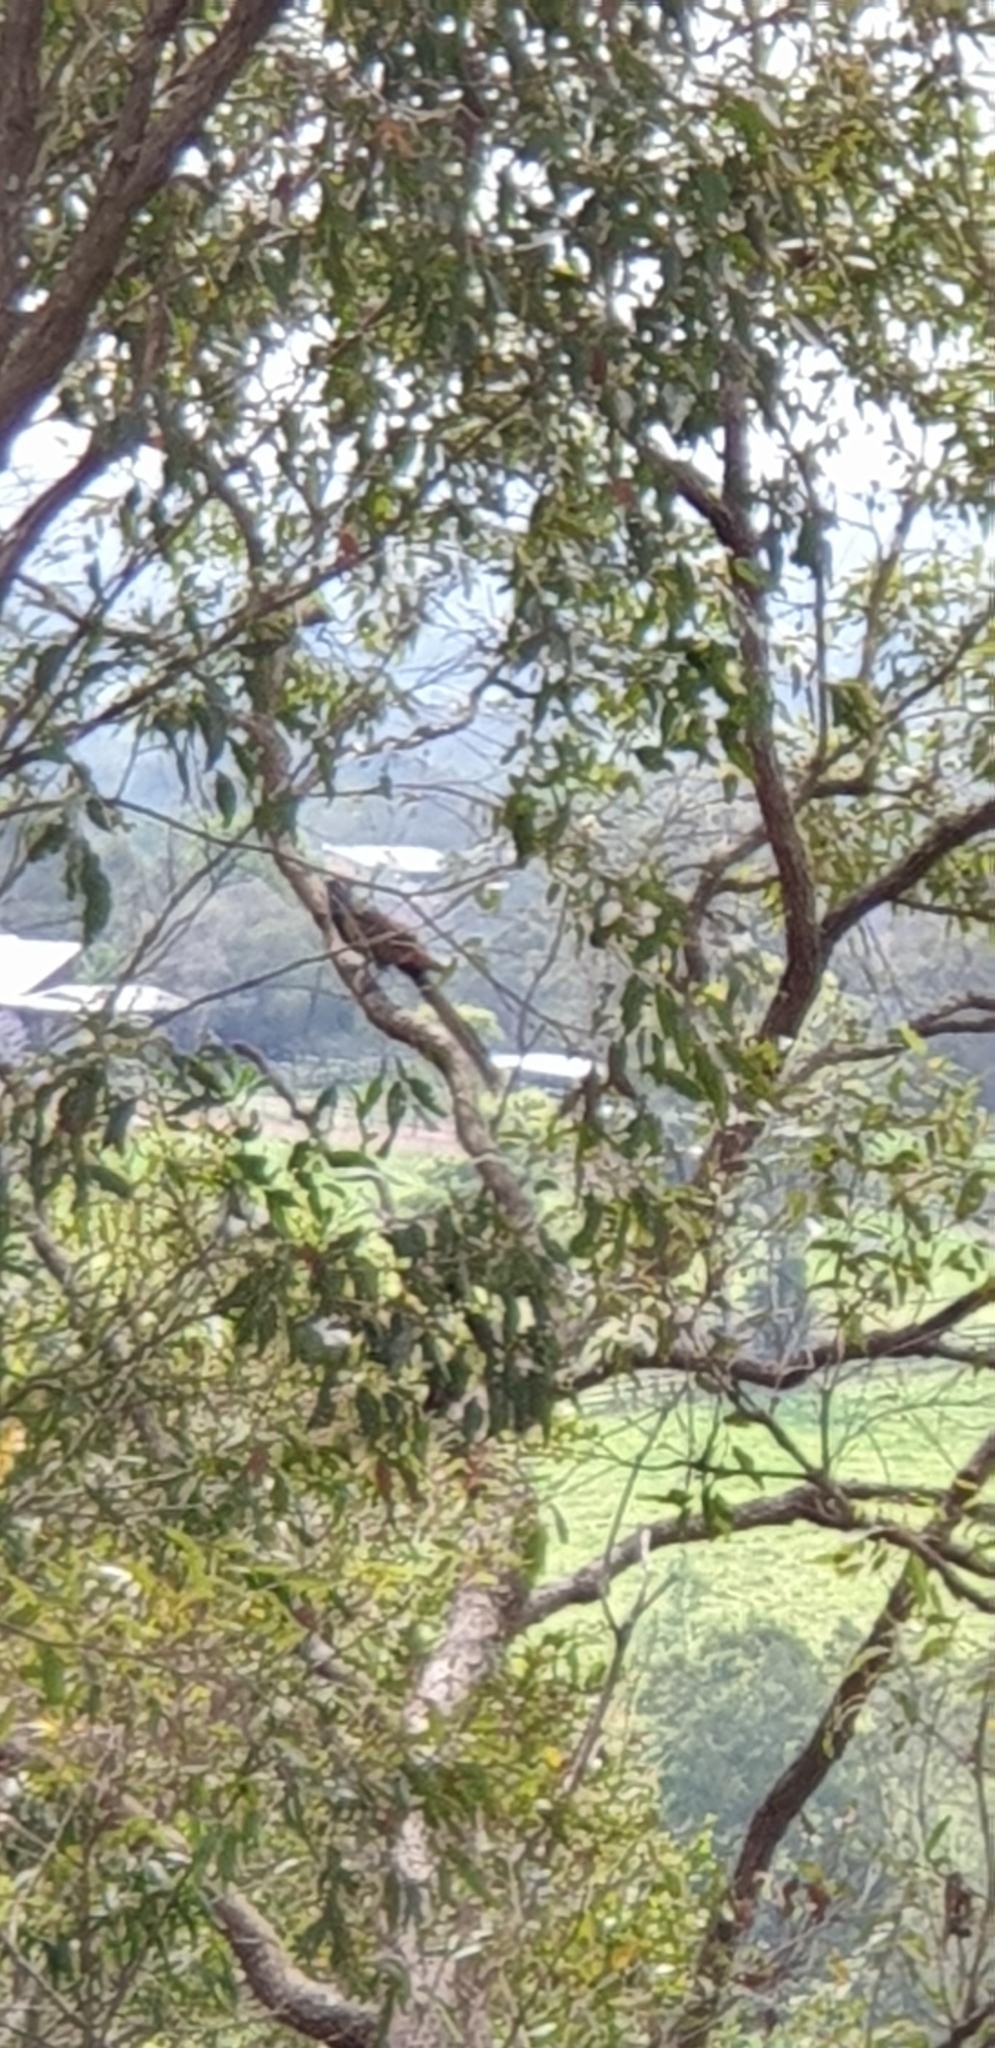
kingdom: Animalia
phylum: Chordata
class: Aves
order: Cuculiformes
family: Cuculidae
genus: Centropus
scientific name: Centropus phasianinus
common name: Pheasant coucal
